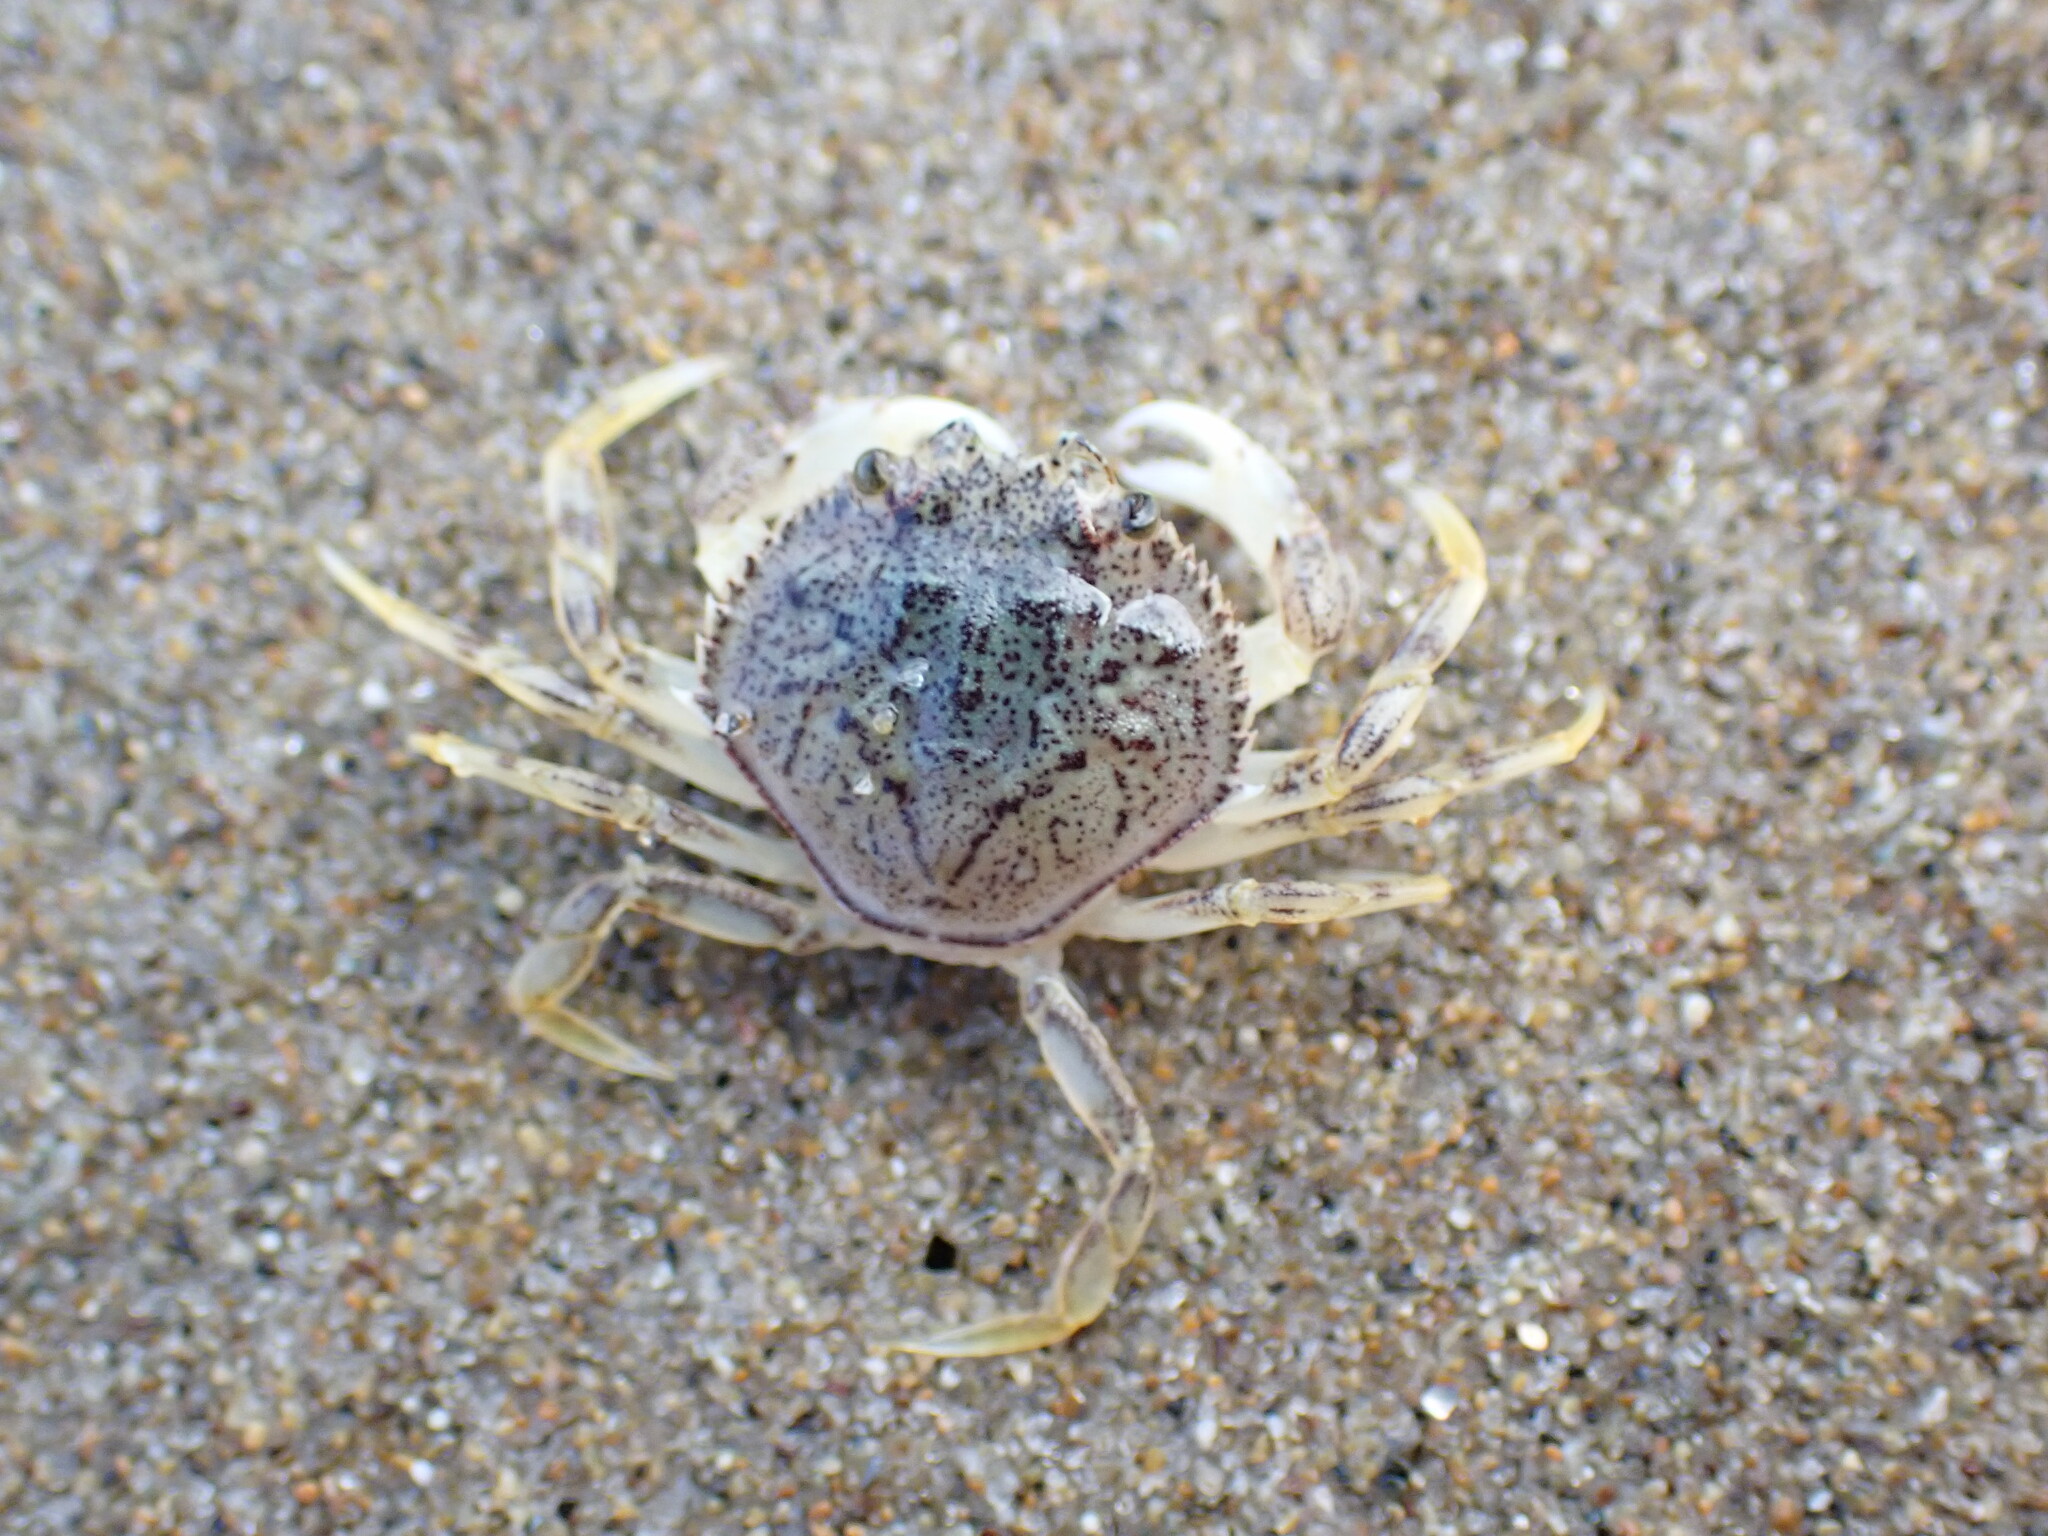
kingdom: Animalia
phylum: Arthropoda
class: Malacostraca
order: Decapoda
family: Cancridae
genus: Metacarcinus
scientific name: Metacarcinus magister
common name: Californian crab
